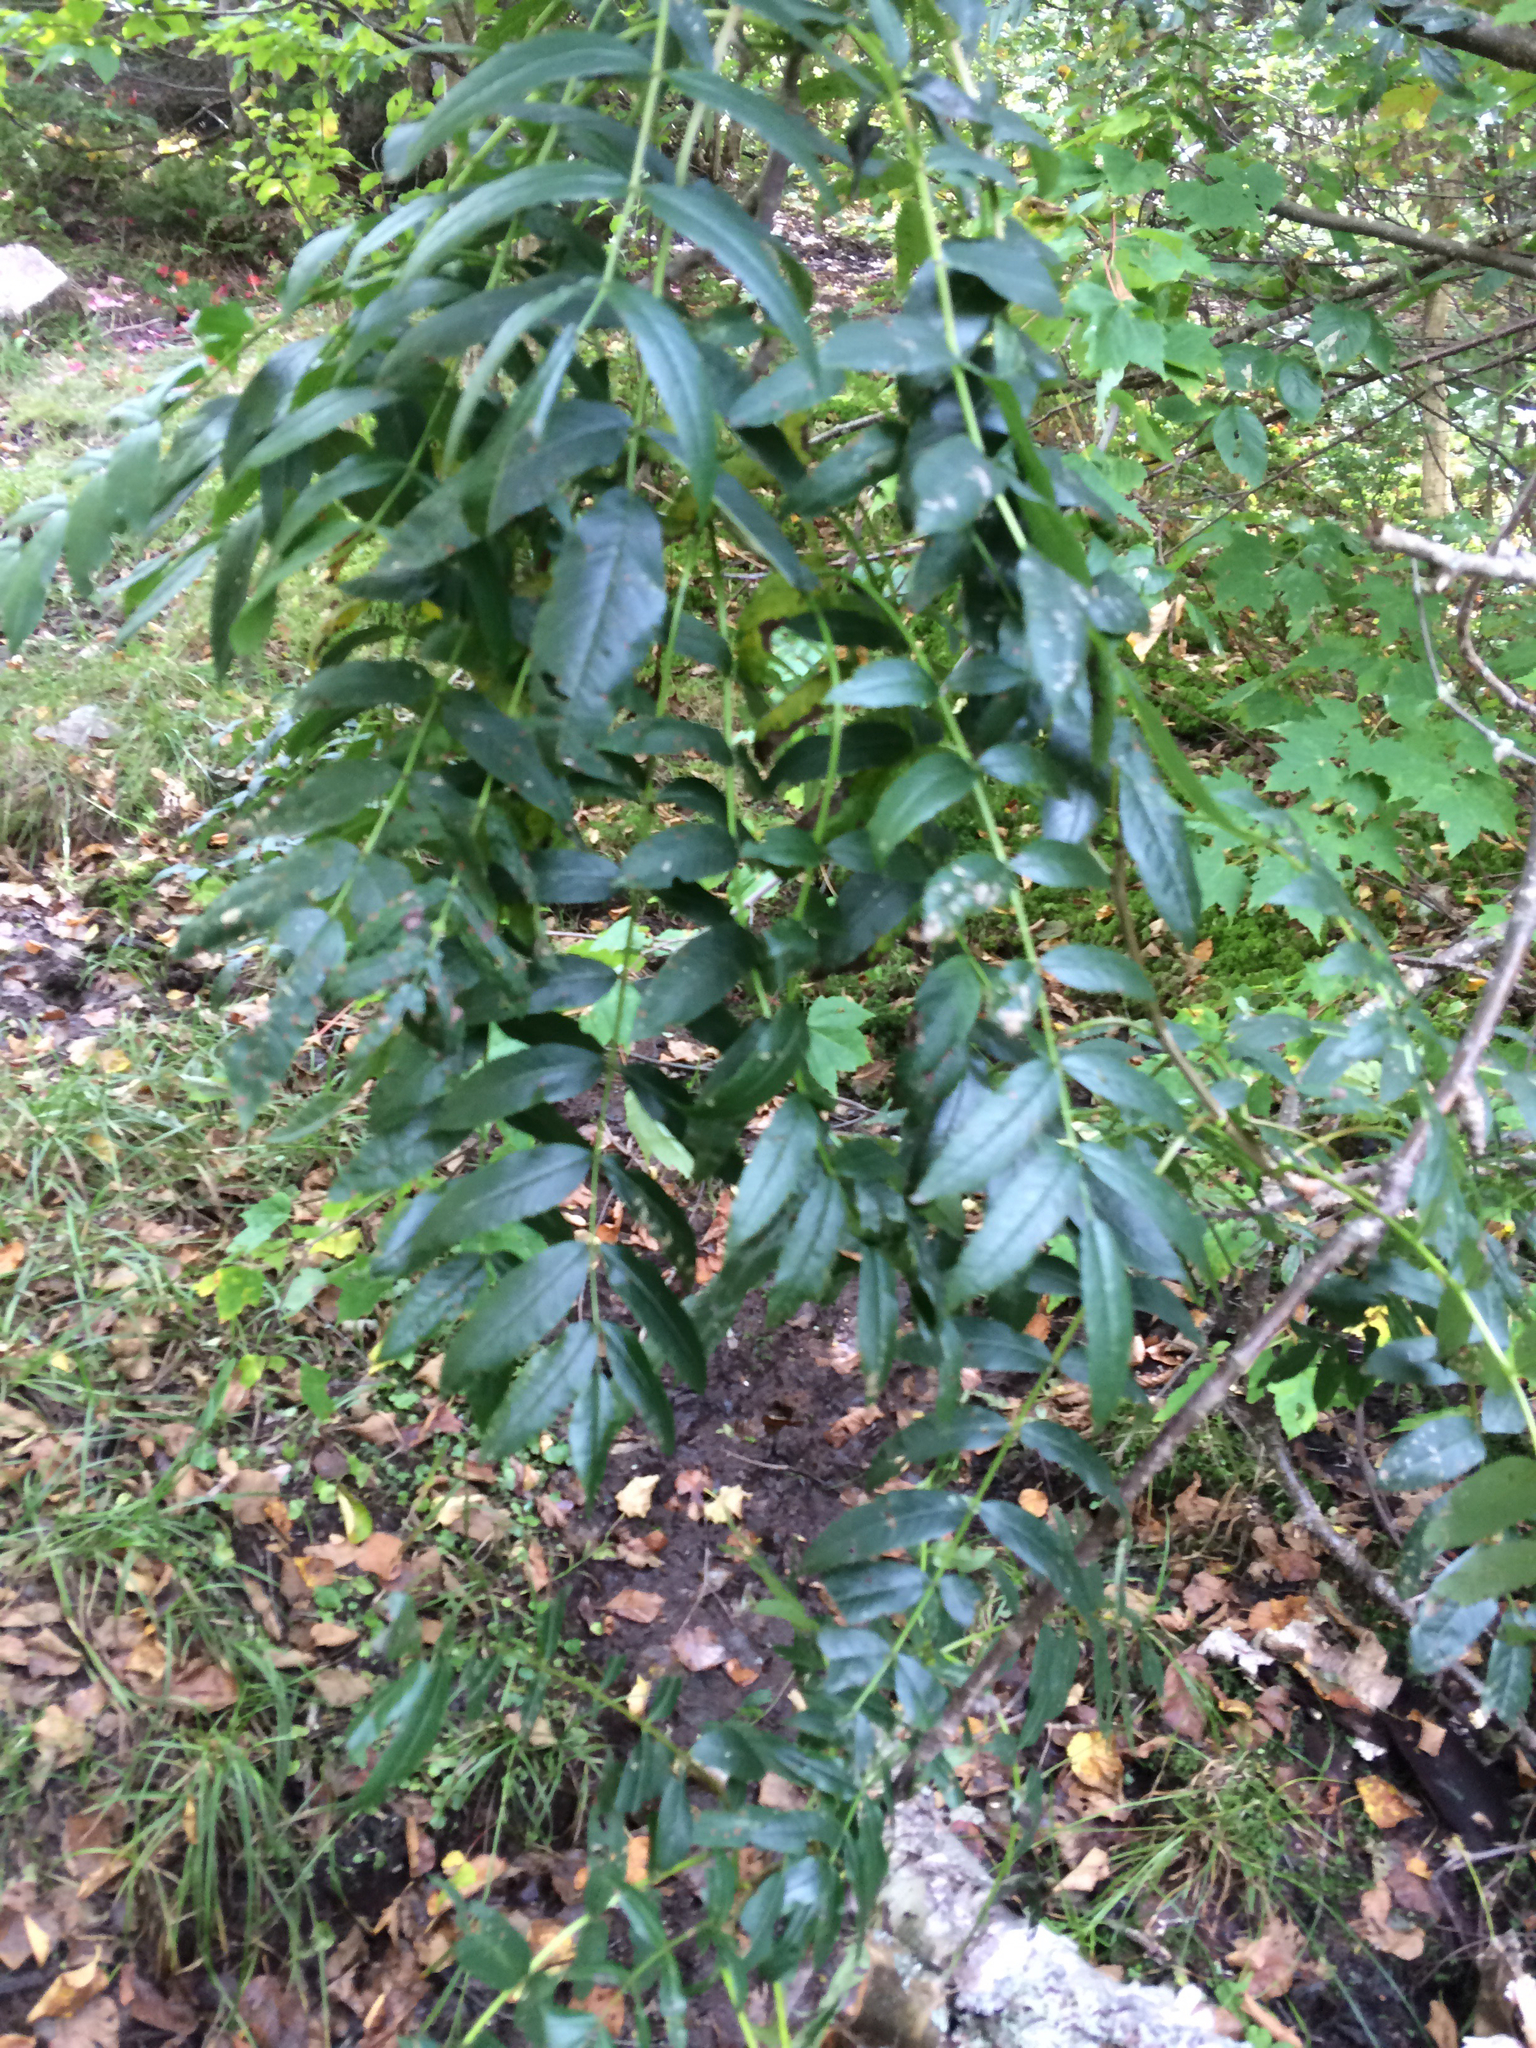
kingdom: Plantae
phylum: Tracheophyta
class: Magnoliopsida
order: Rosales
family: Rosaceae
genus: Sorbus
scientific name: Sorbus americana
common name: American mountain-ash
